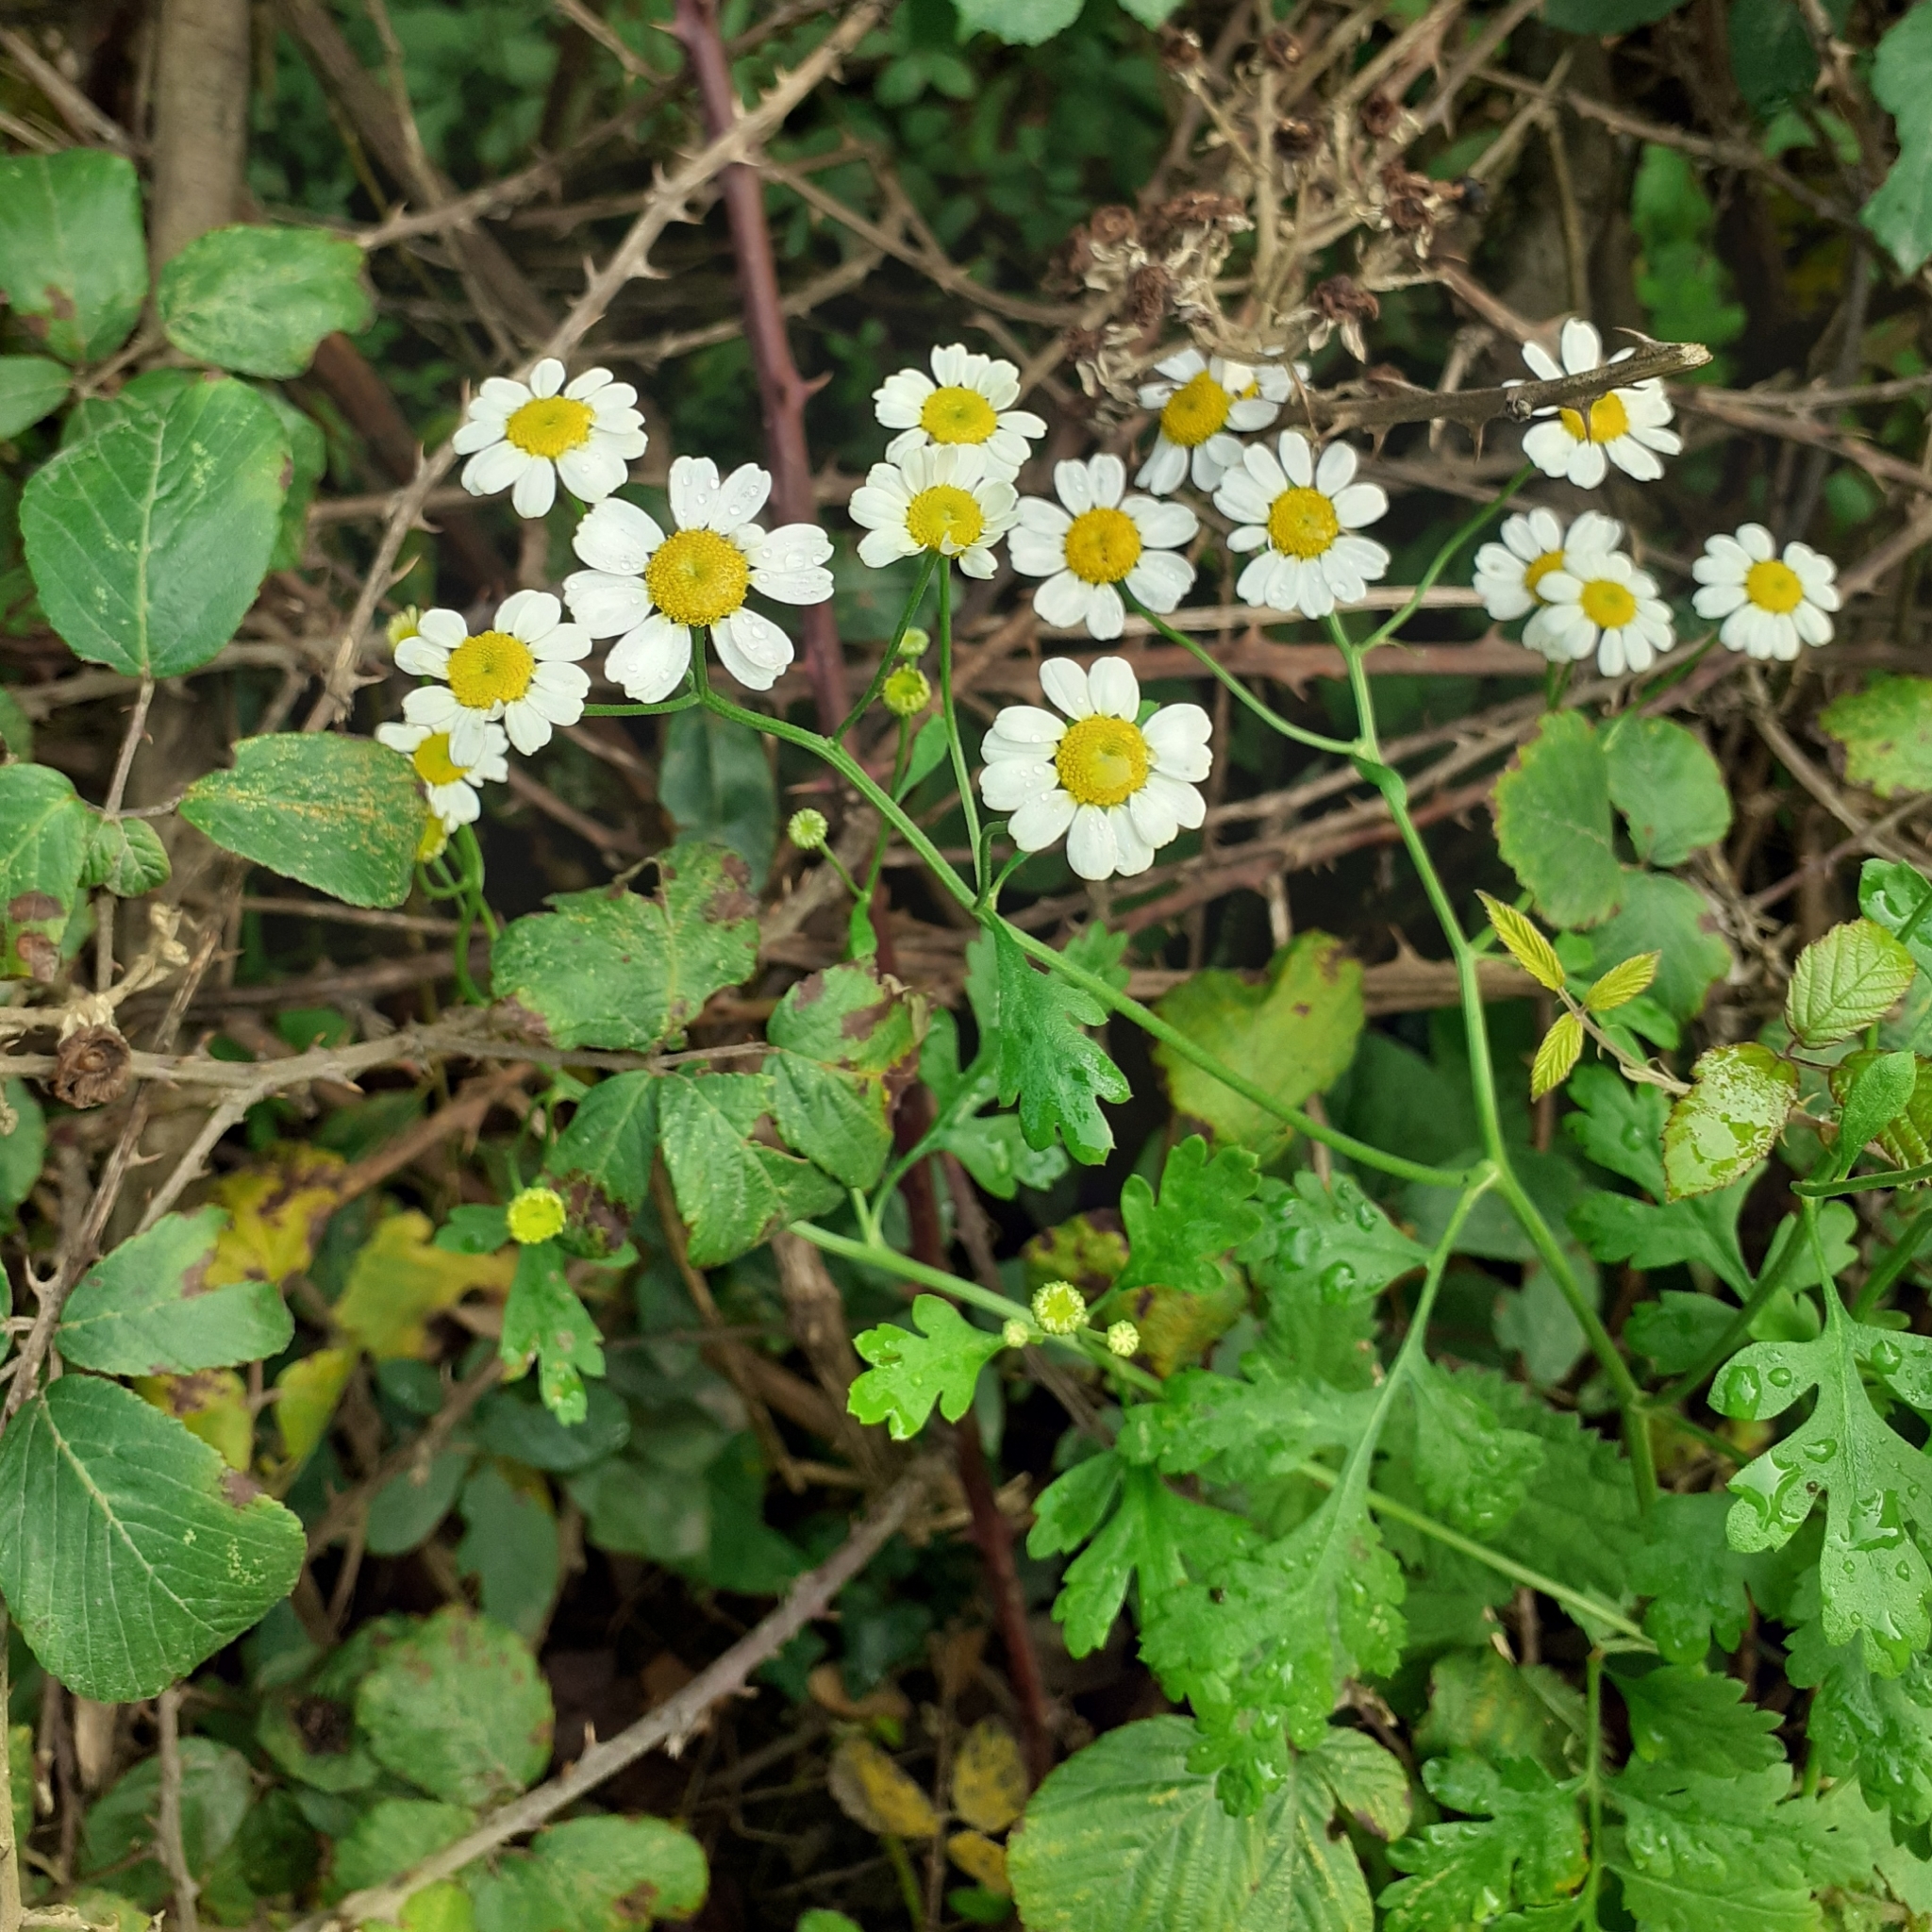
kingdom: Plantae
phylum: Tracheophyta
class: Magnoliopsida
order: Asterales
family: Asteraceae
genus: Tanacetum
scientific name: Tanacetum parthenium
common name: Feverfew
